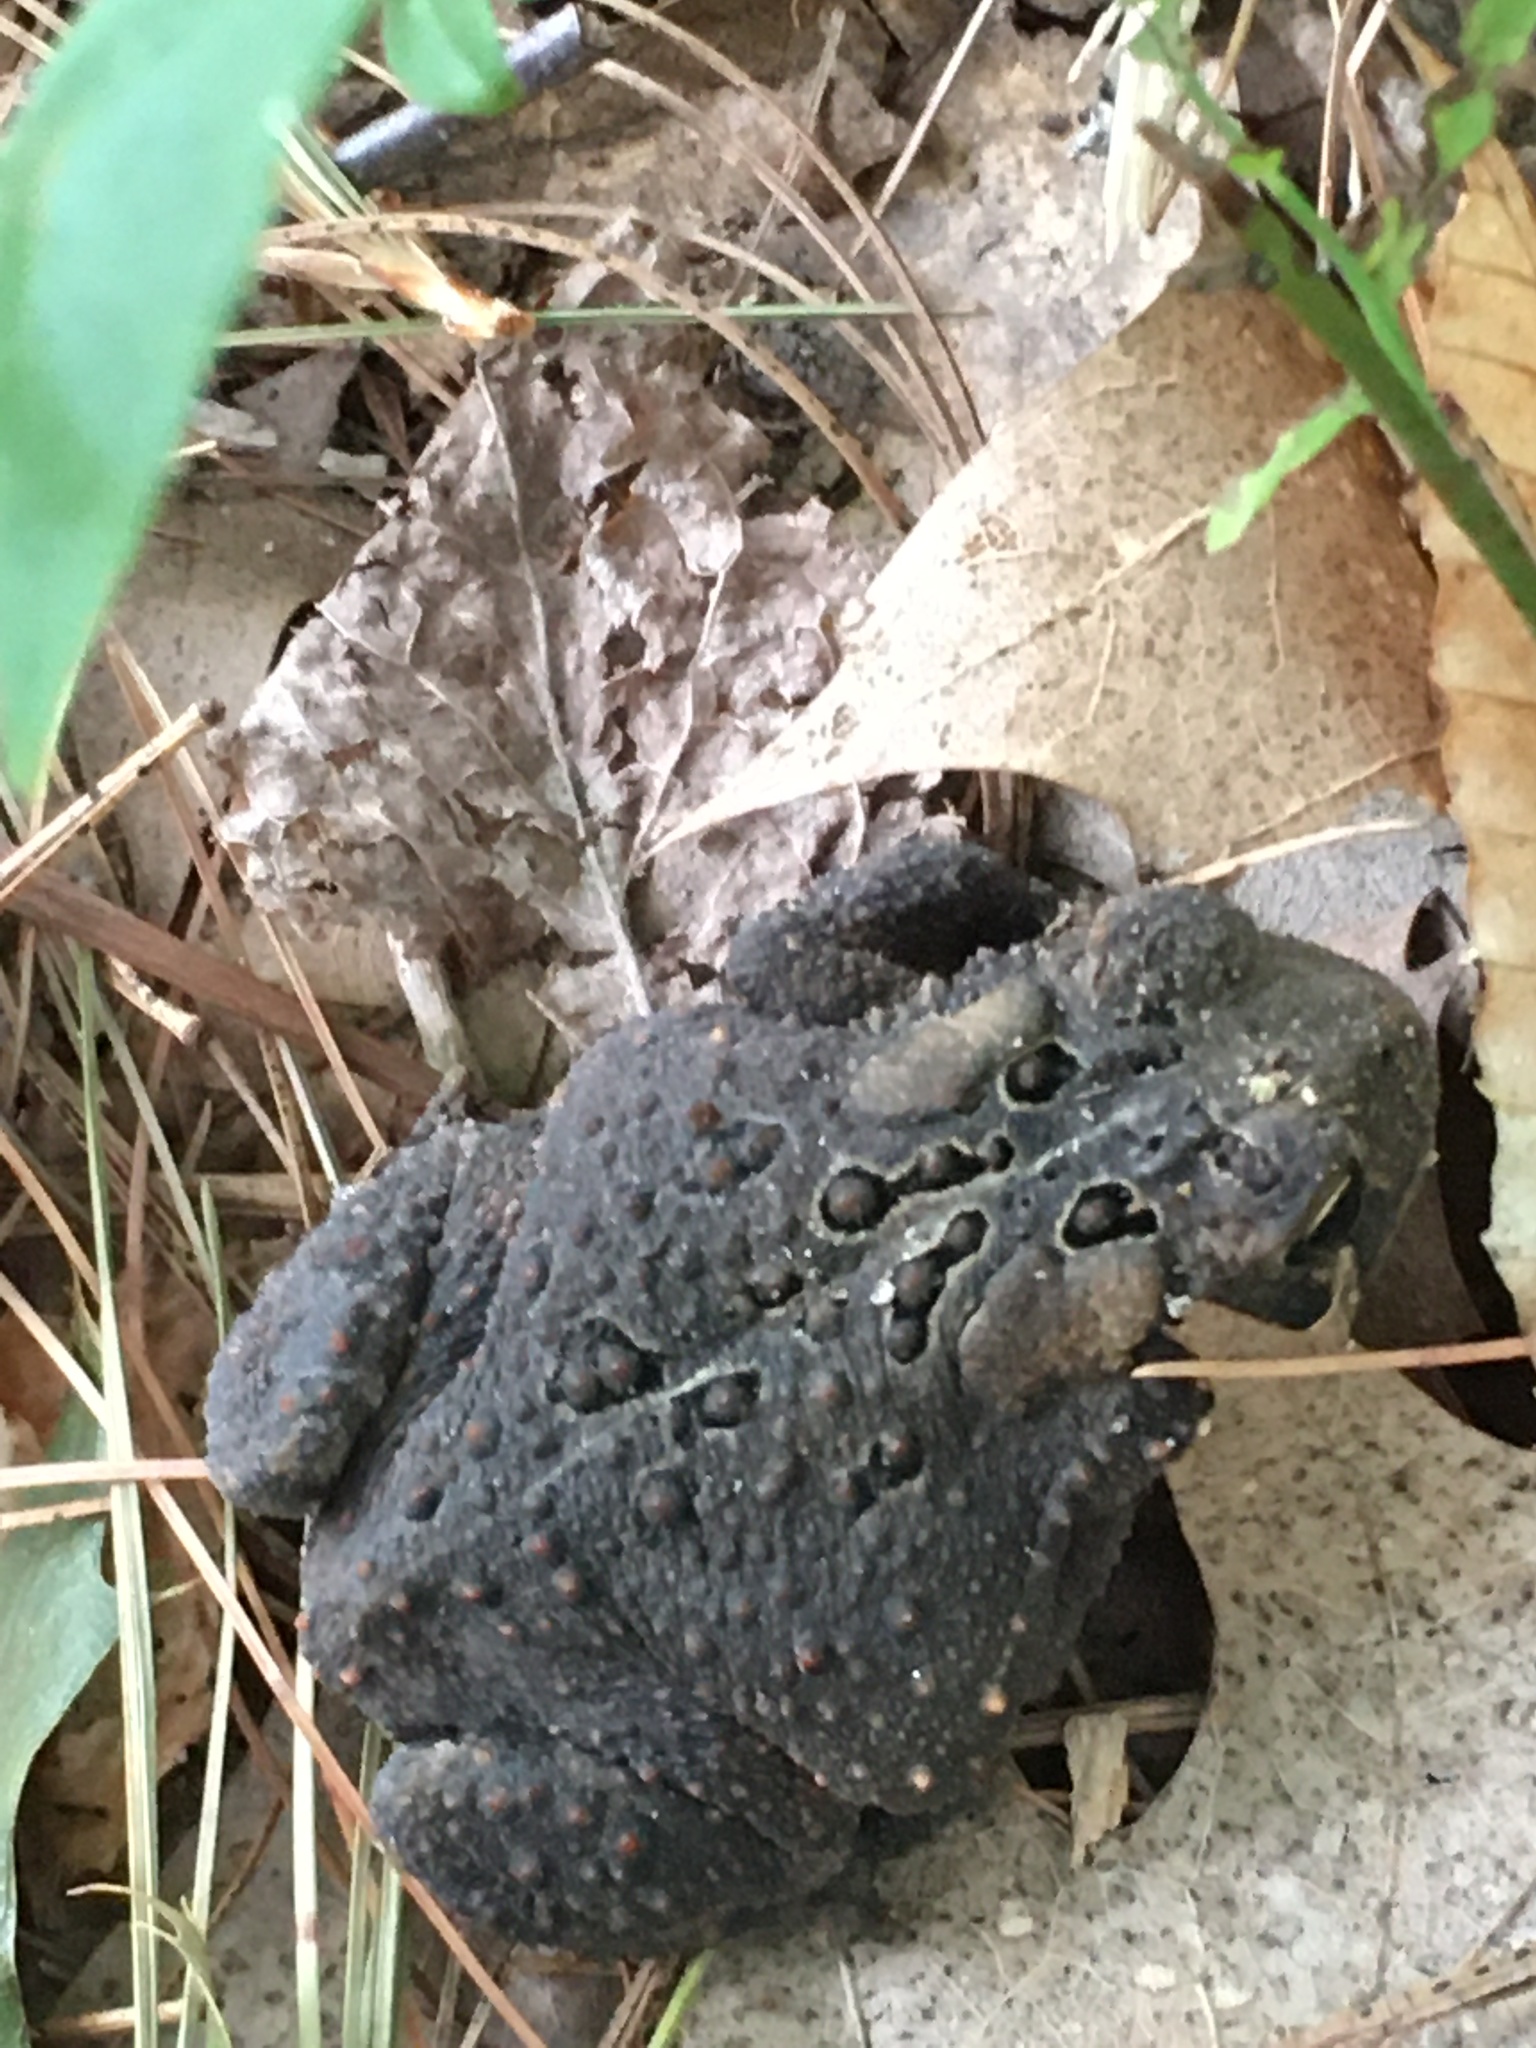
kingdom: Animalia
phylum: Chordata
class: Amphibia
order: Anura
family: Bufonidae
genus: Anaxyrus
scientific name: Anaxyrus americanus
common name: American toad
